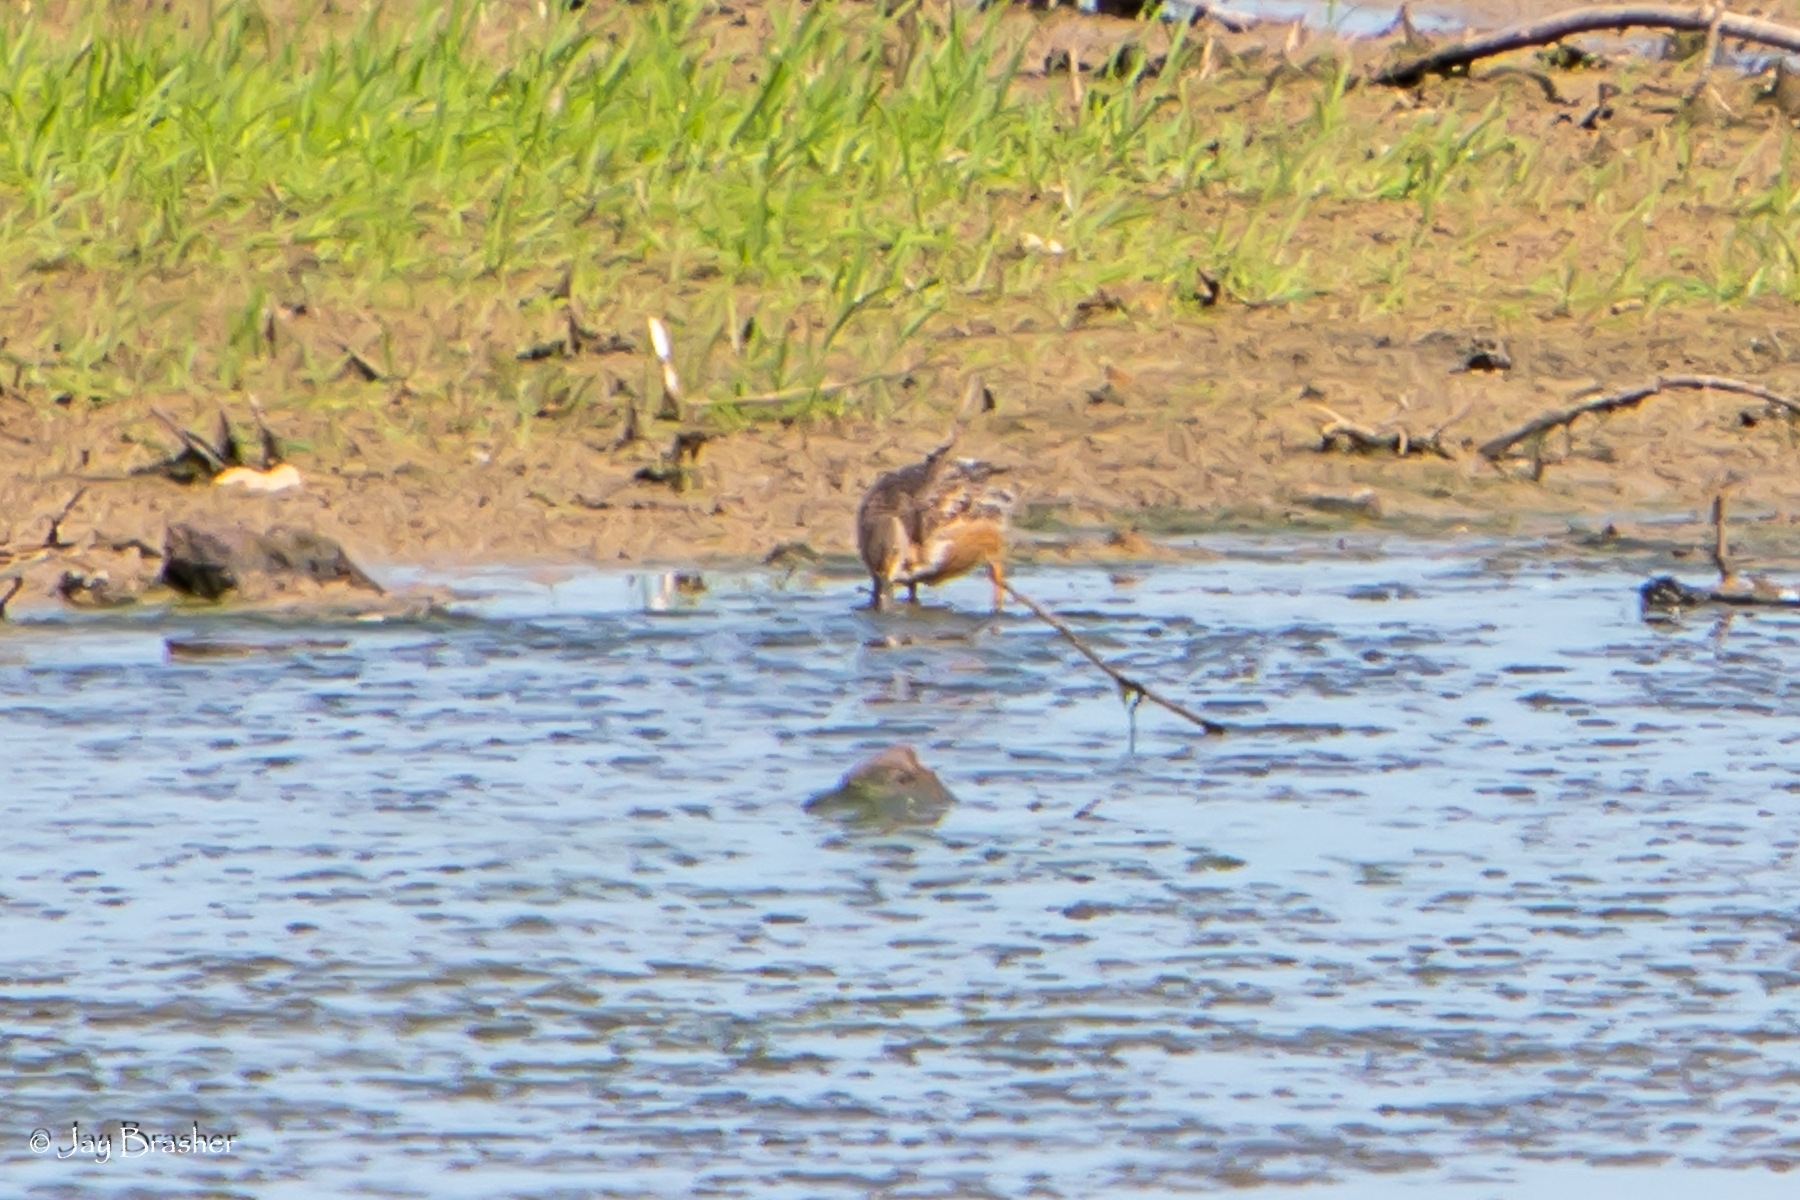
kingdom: Animalia
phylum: Chordata
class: Aves
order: Anseriformes
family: Anatidae
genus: Spatula
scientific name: Spatula clypeata
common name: Northern shoveler
